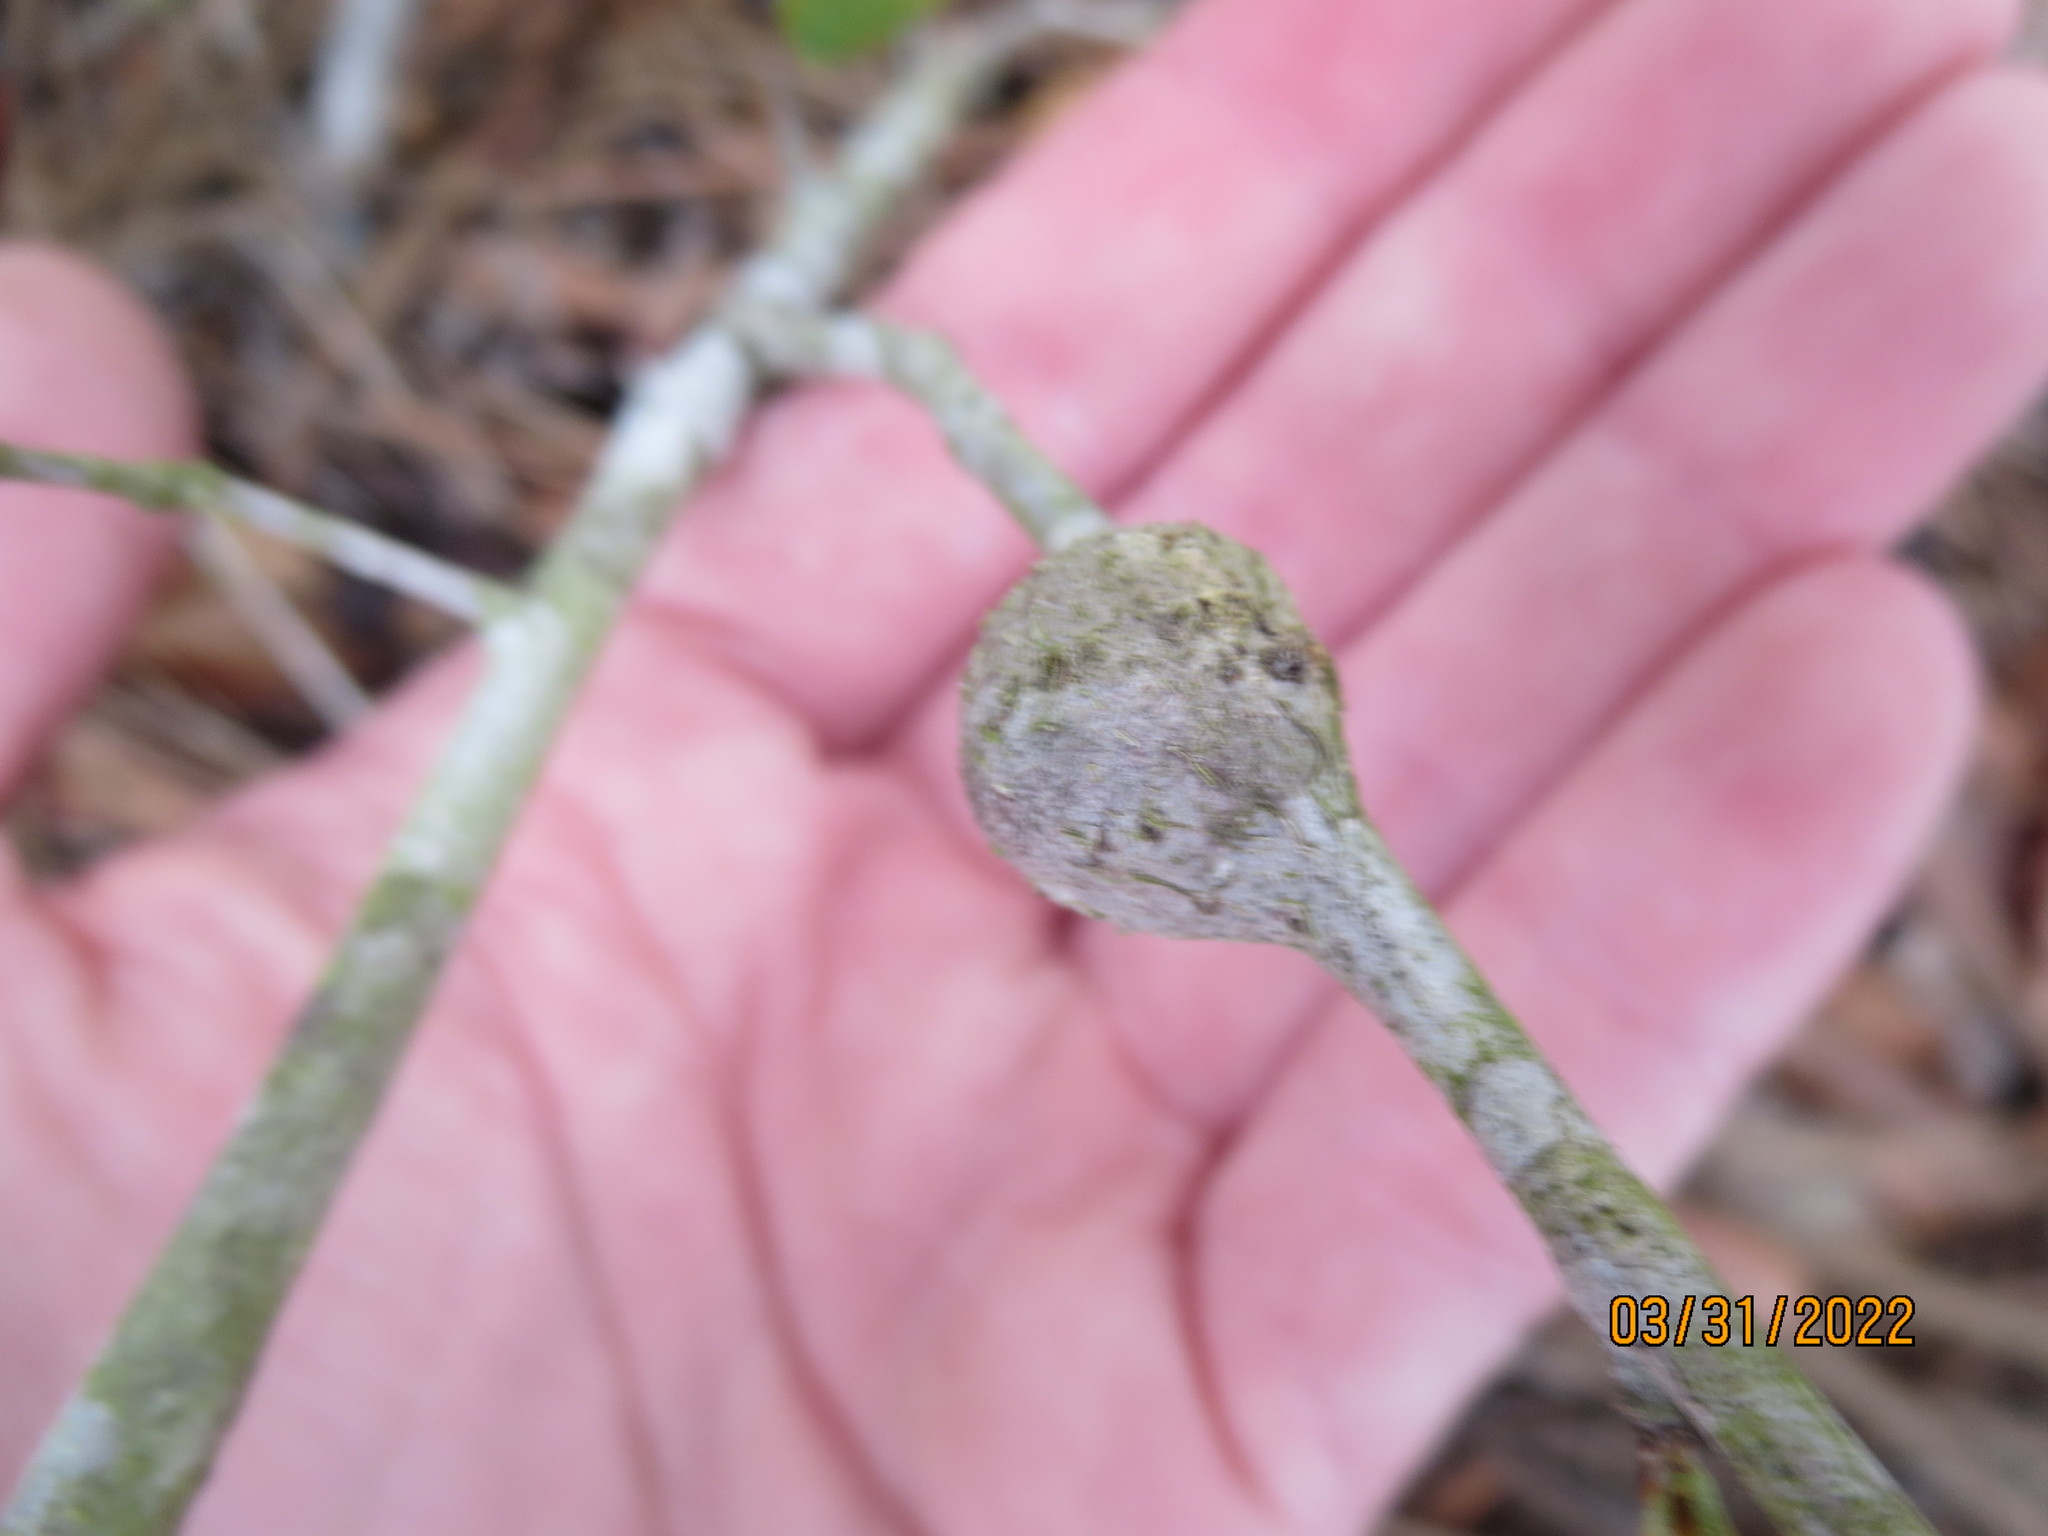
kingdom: Animalia
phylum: Arthropoda
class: Insecta
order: Hymenoptera
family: Cynipidae
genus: Callirhytis
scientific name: Callirhytis
